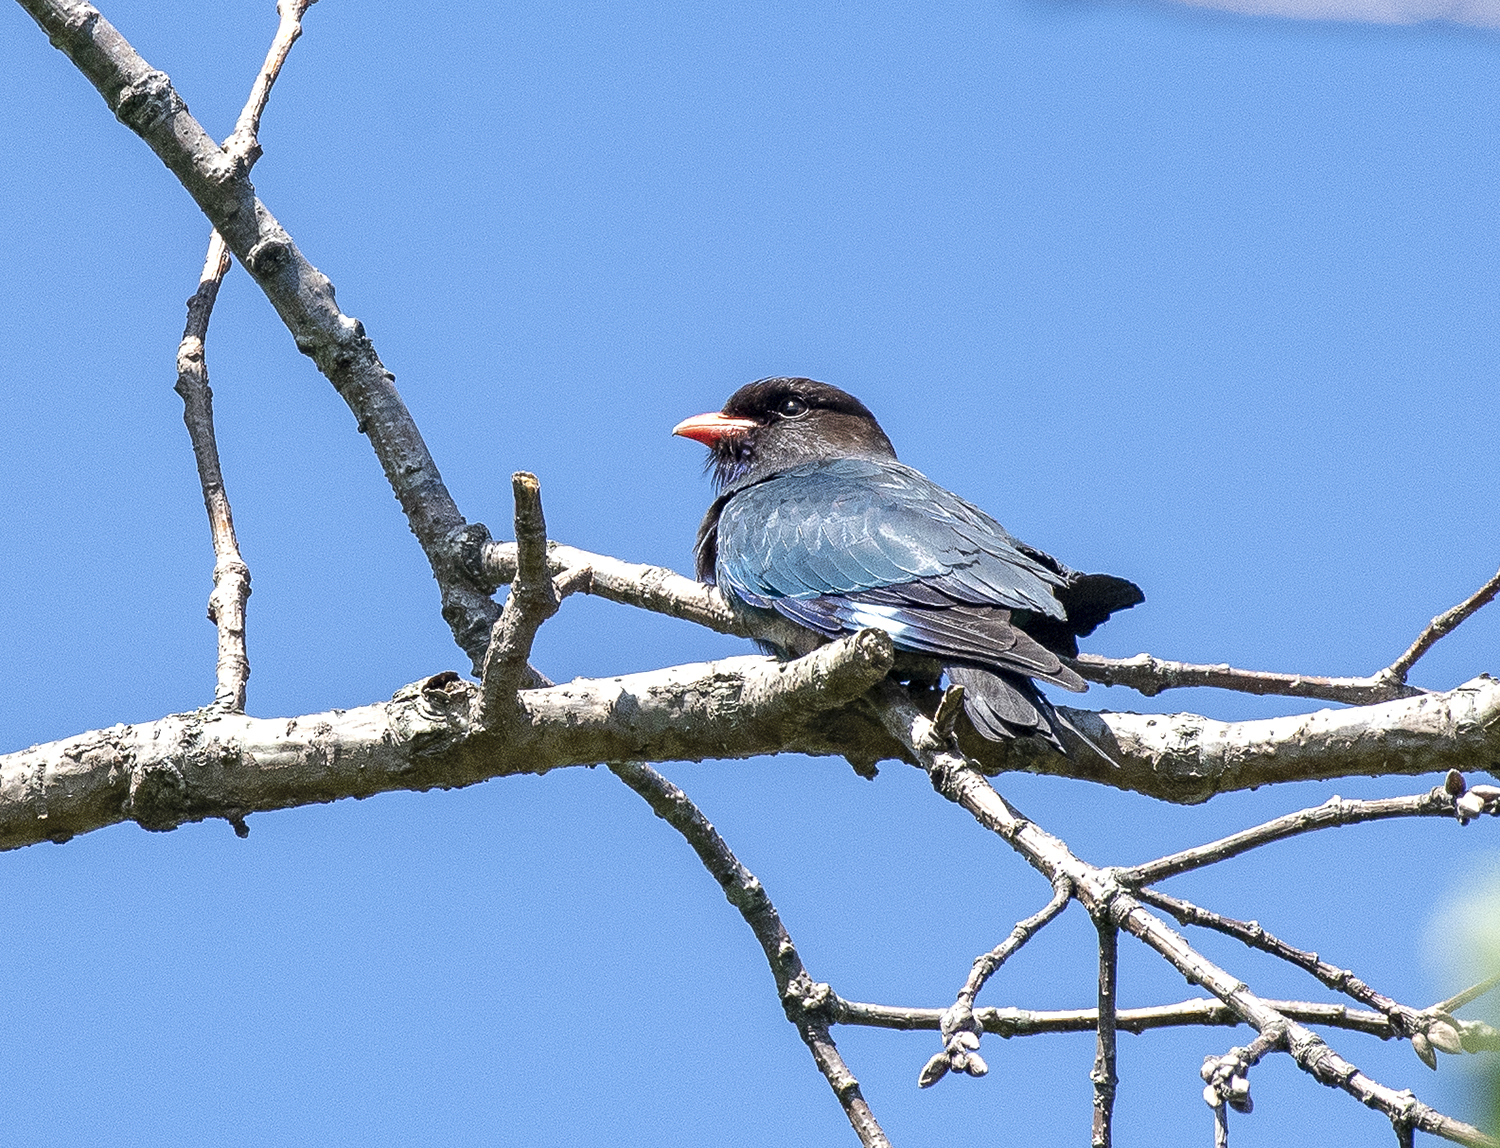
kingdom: Animalia
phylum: Chordata
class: Aves
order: Coraciiformes
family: Coraciidae
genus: Eurystomus
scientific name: Eurystomus orientalis
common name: Oriental dollarbird
